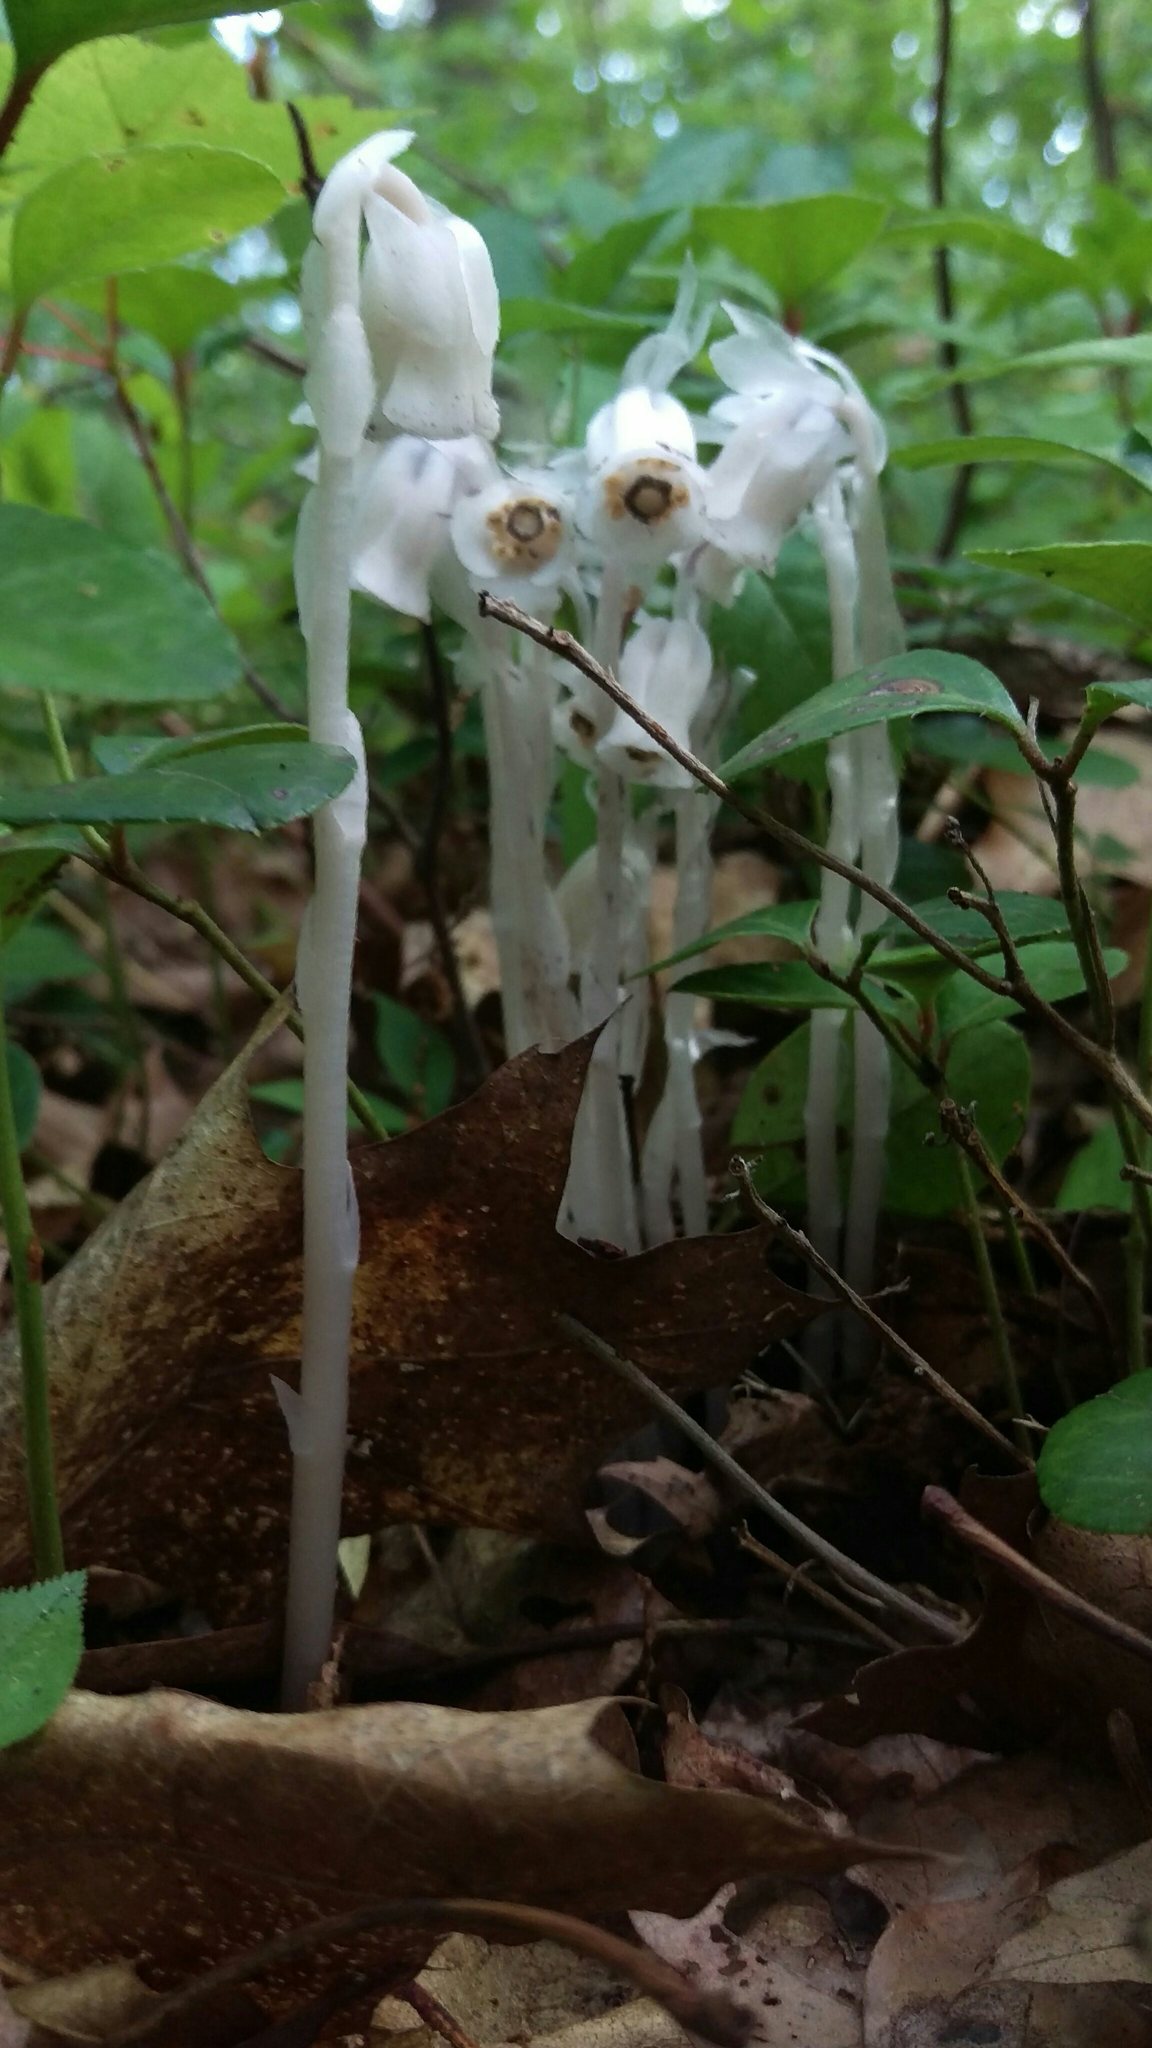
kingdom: Plantae
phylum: Tracheophyta
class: Magnoliopsida
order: Ericales
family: Ericaceae
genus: Monotropa
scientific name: Monotropa uniflora
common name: Convulsion root
